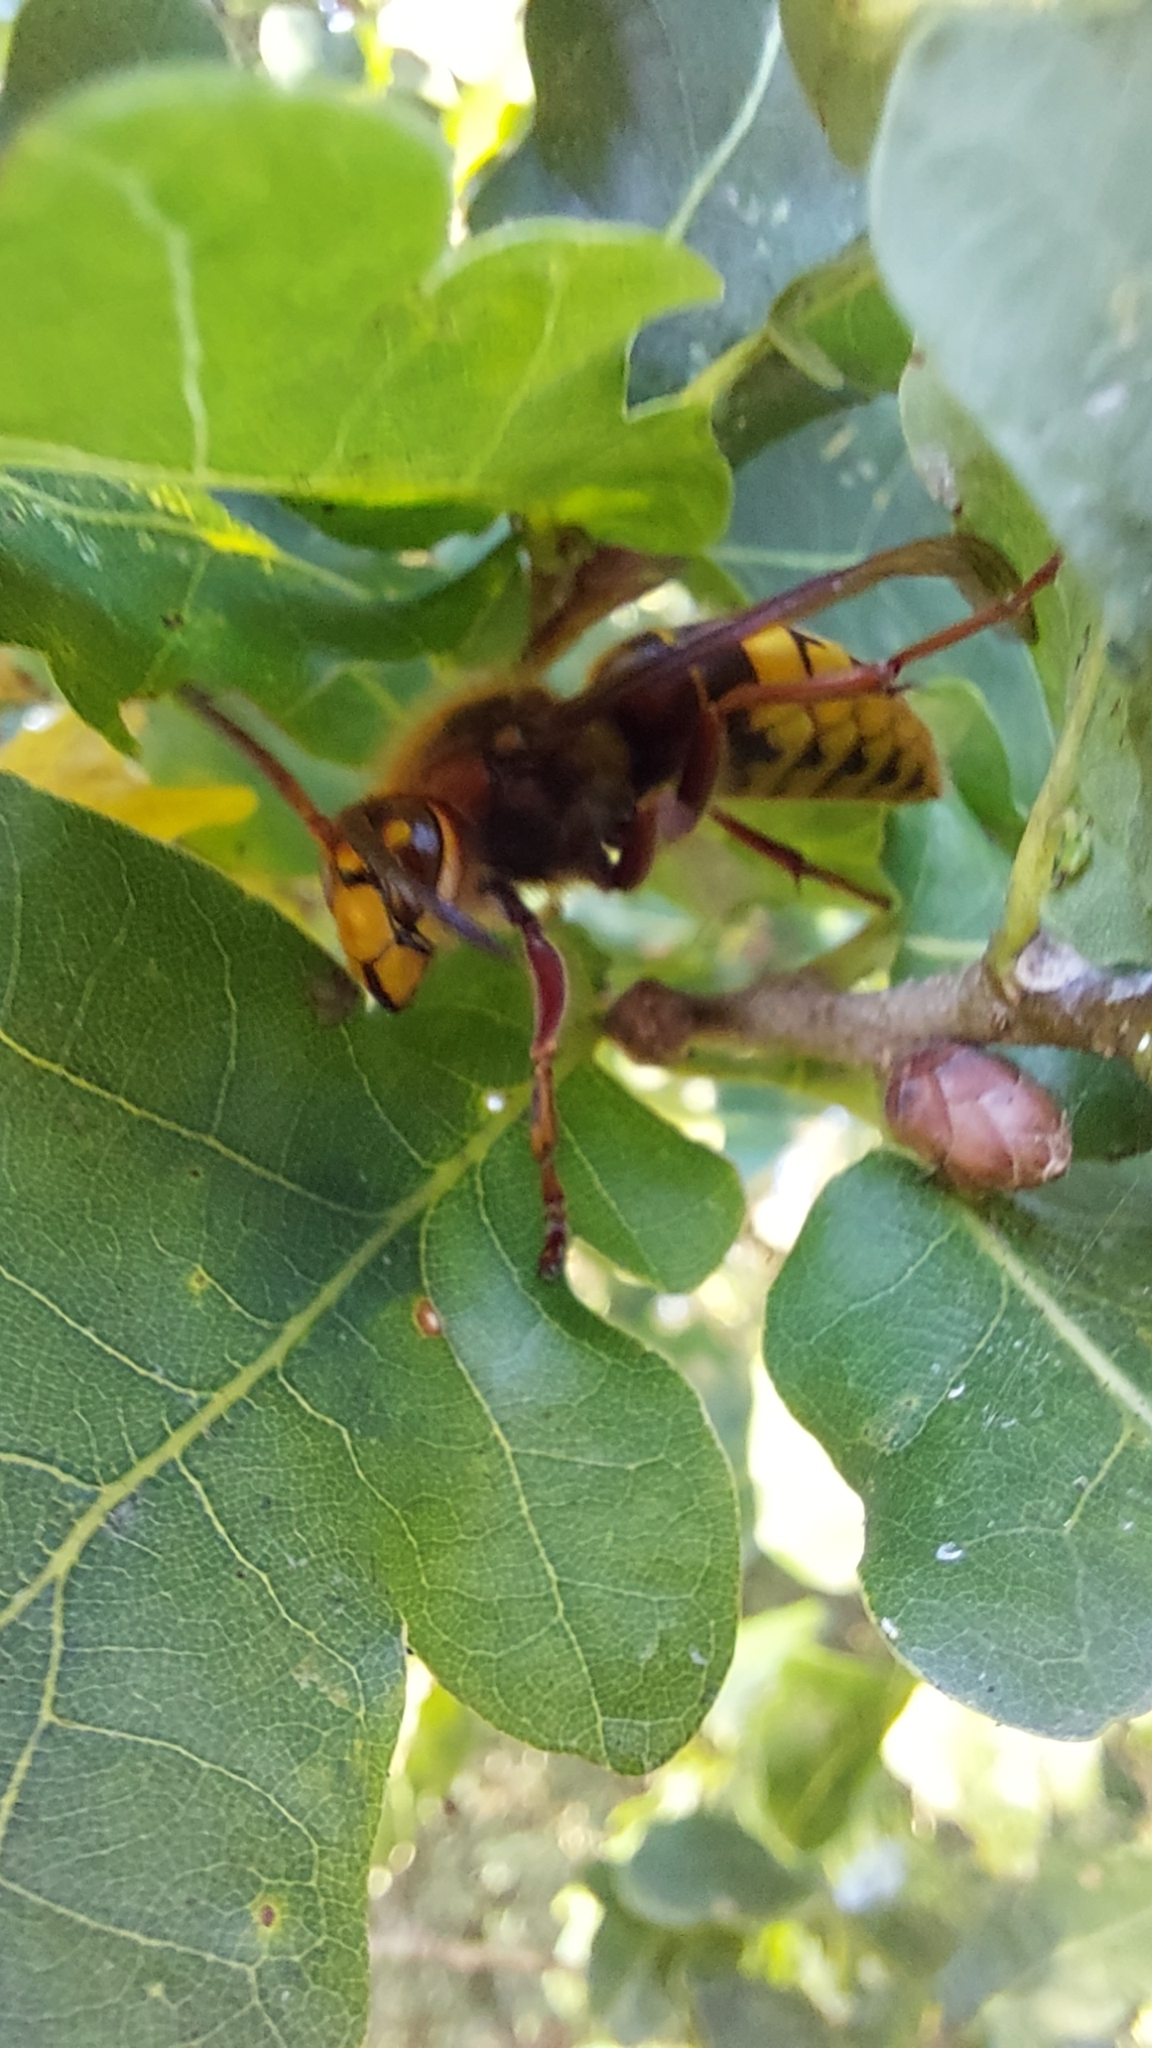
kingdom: Animalia
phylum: Arthropoda
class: Insecta
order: Hymenoptera
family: Vespidae
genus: Vespa
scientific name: Vespa crabro
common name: Hornet
